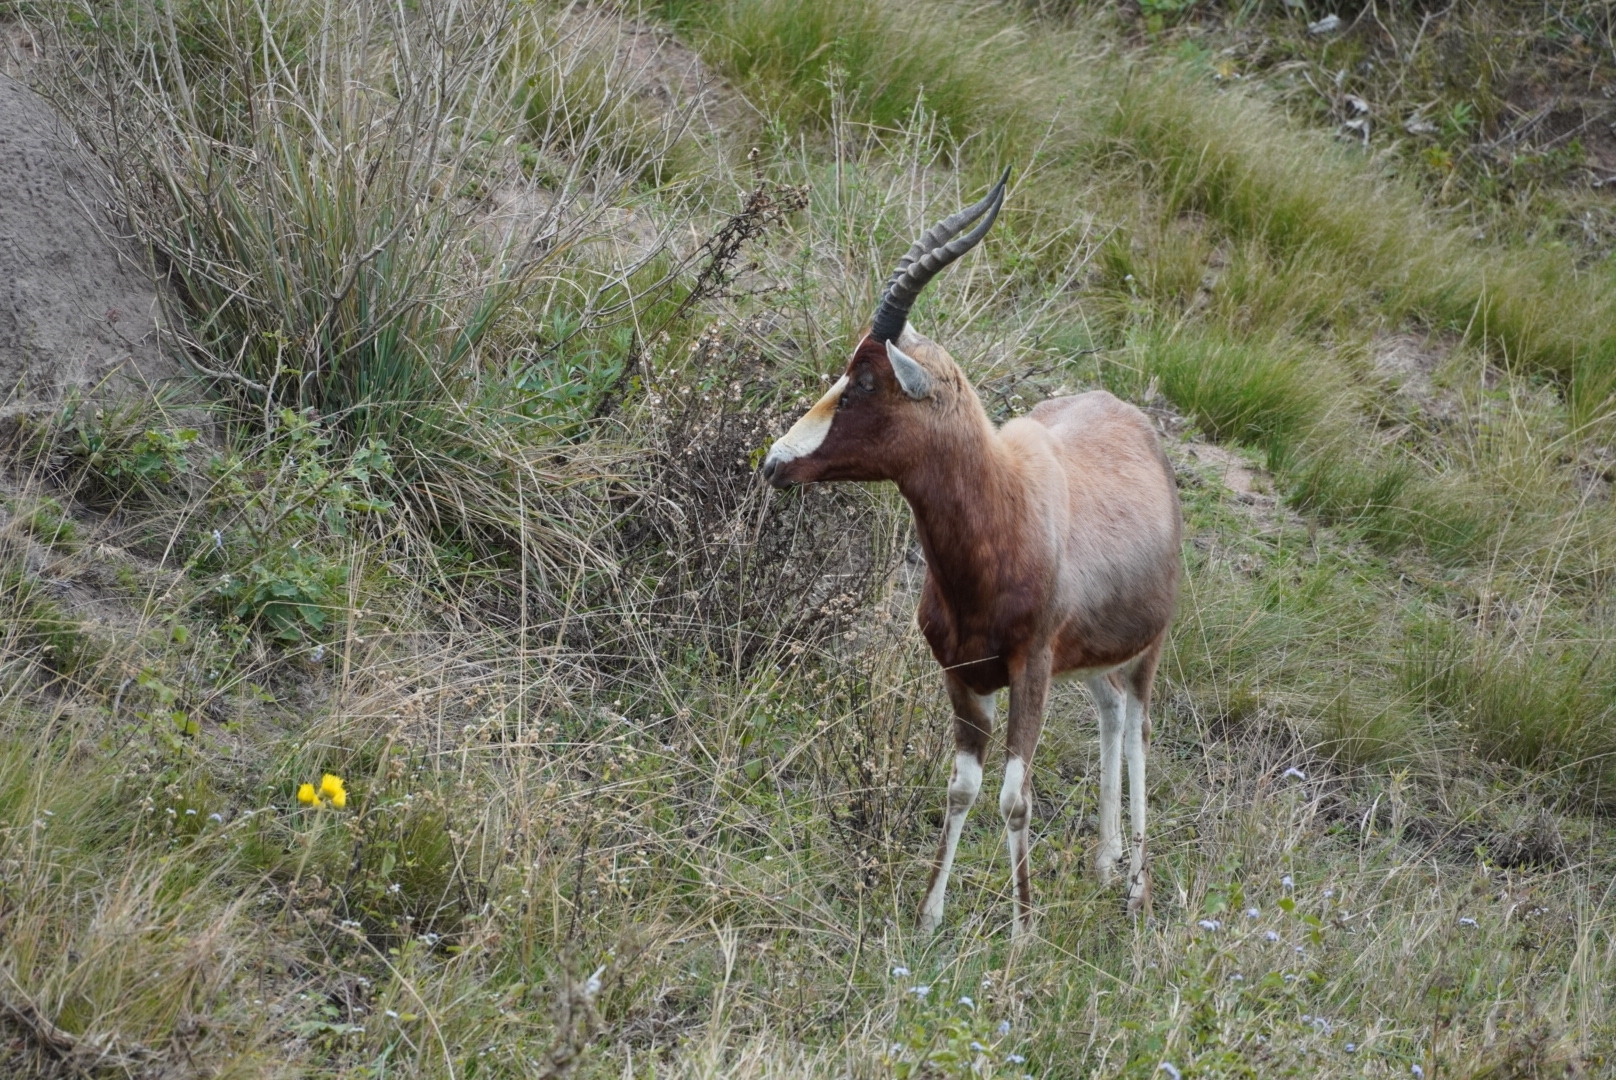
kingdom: Animalia
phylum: Chordata
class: Mammalia
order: Artiodactyla
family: Bovidae
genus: Damaliscus
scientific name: Damaliscus pygargus
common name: Bontebok
